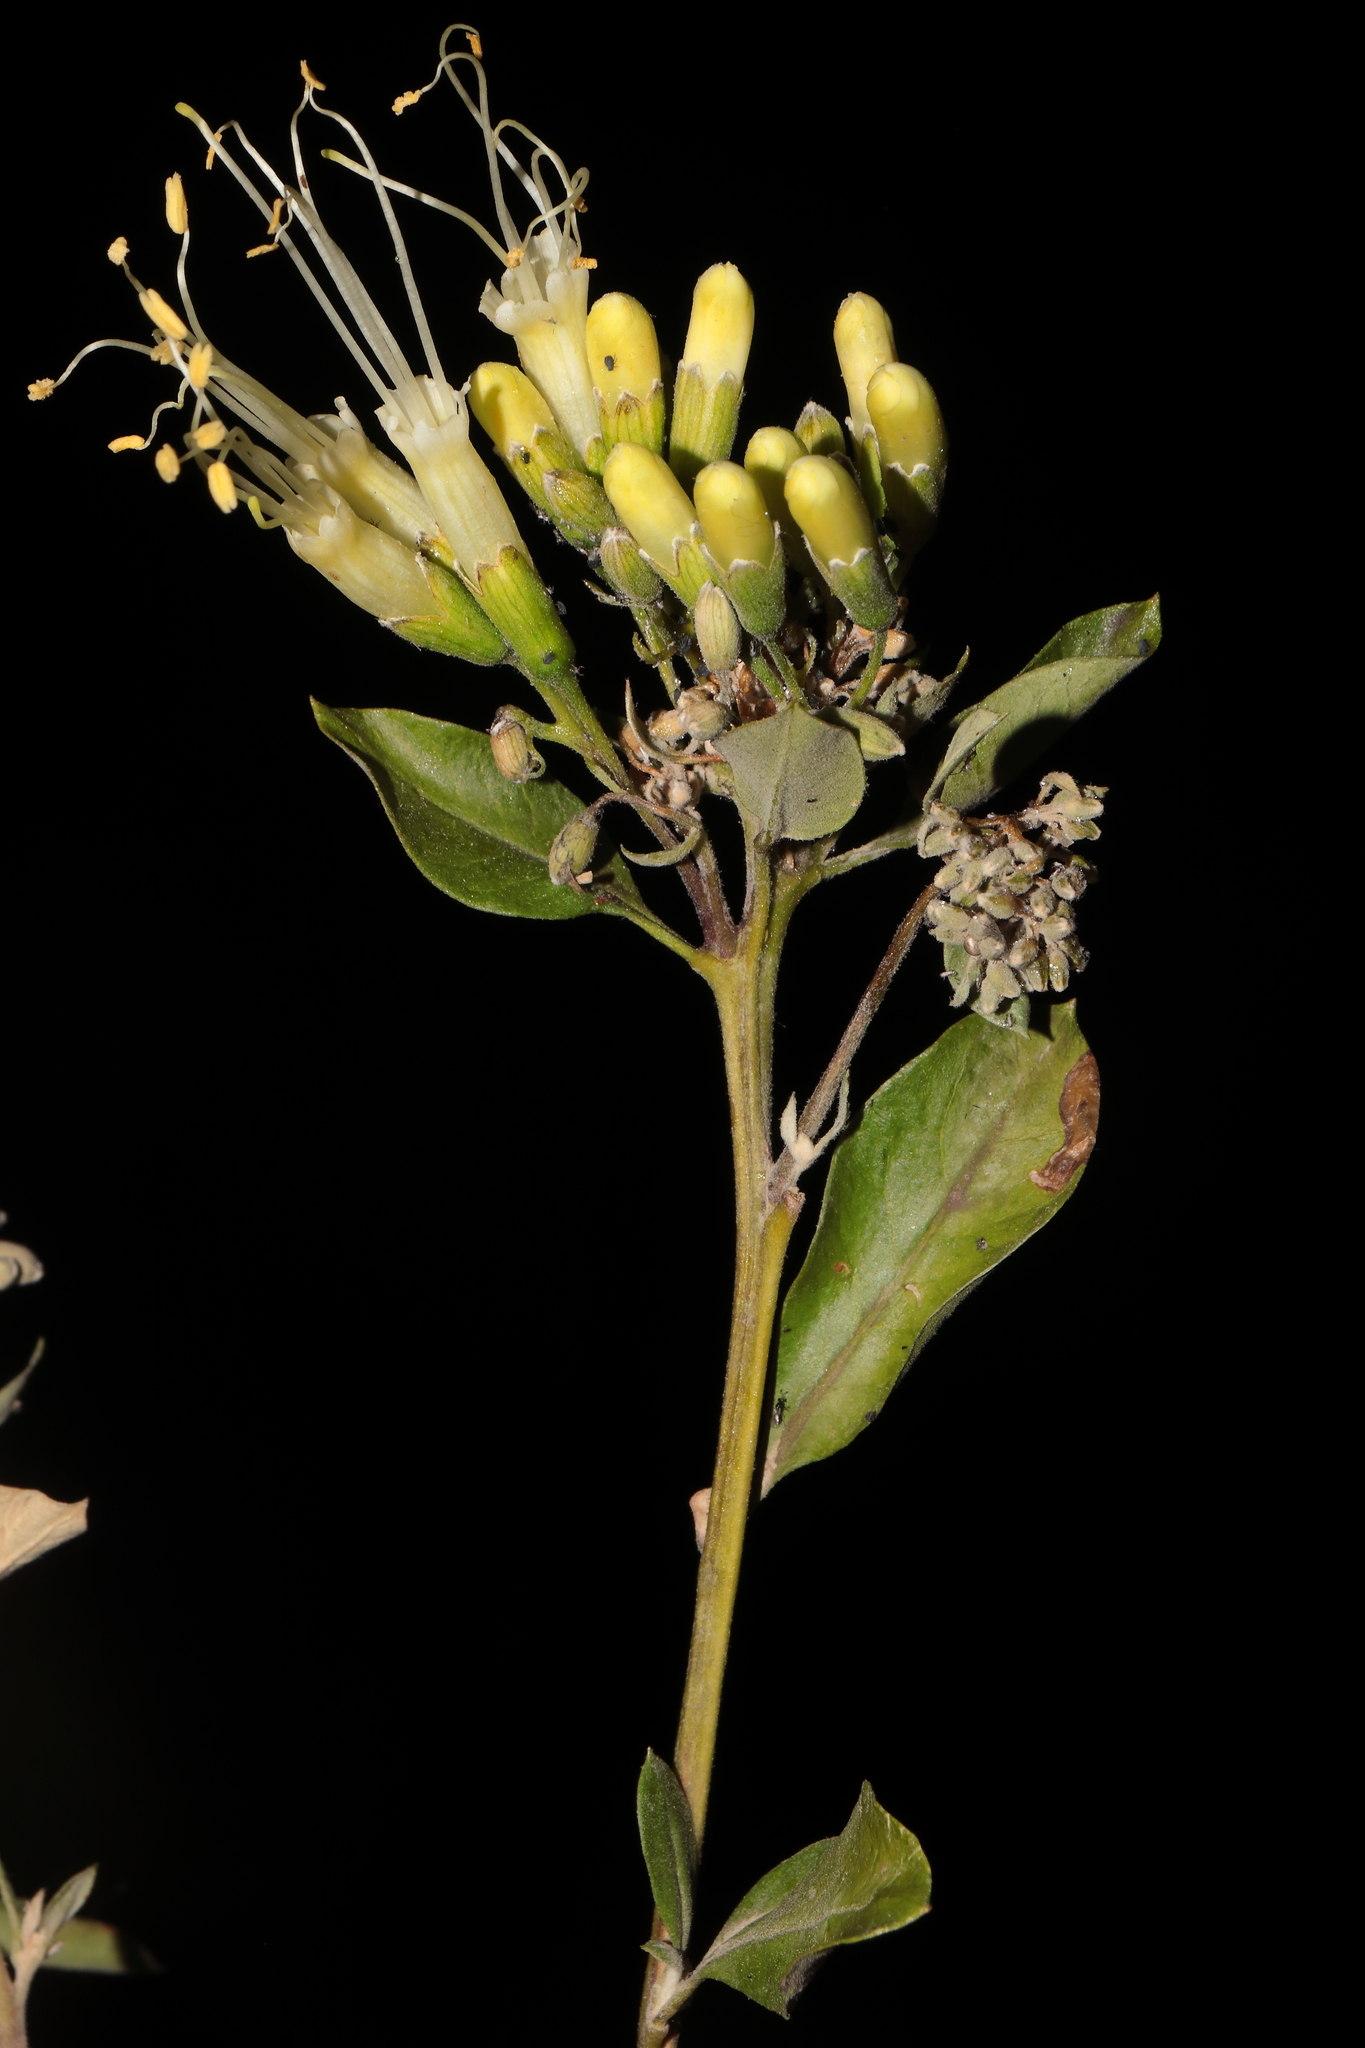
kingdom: Plantae
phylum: Tracheophyta
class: Magnoliopsida
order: Ericales
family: Polemoniaceae
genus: Cantua
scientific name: Cantua flexuosa
